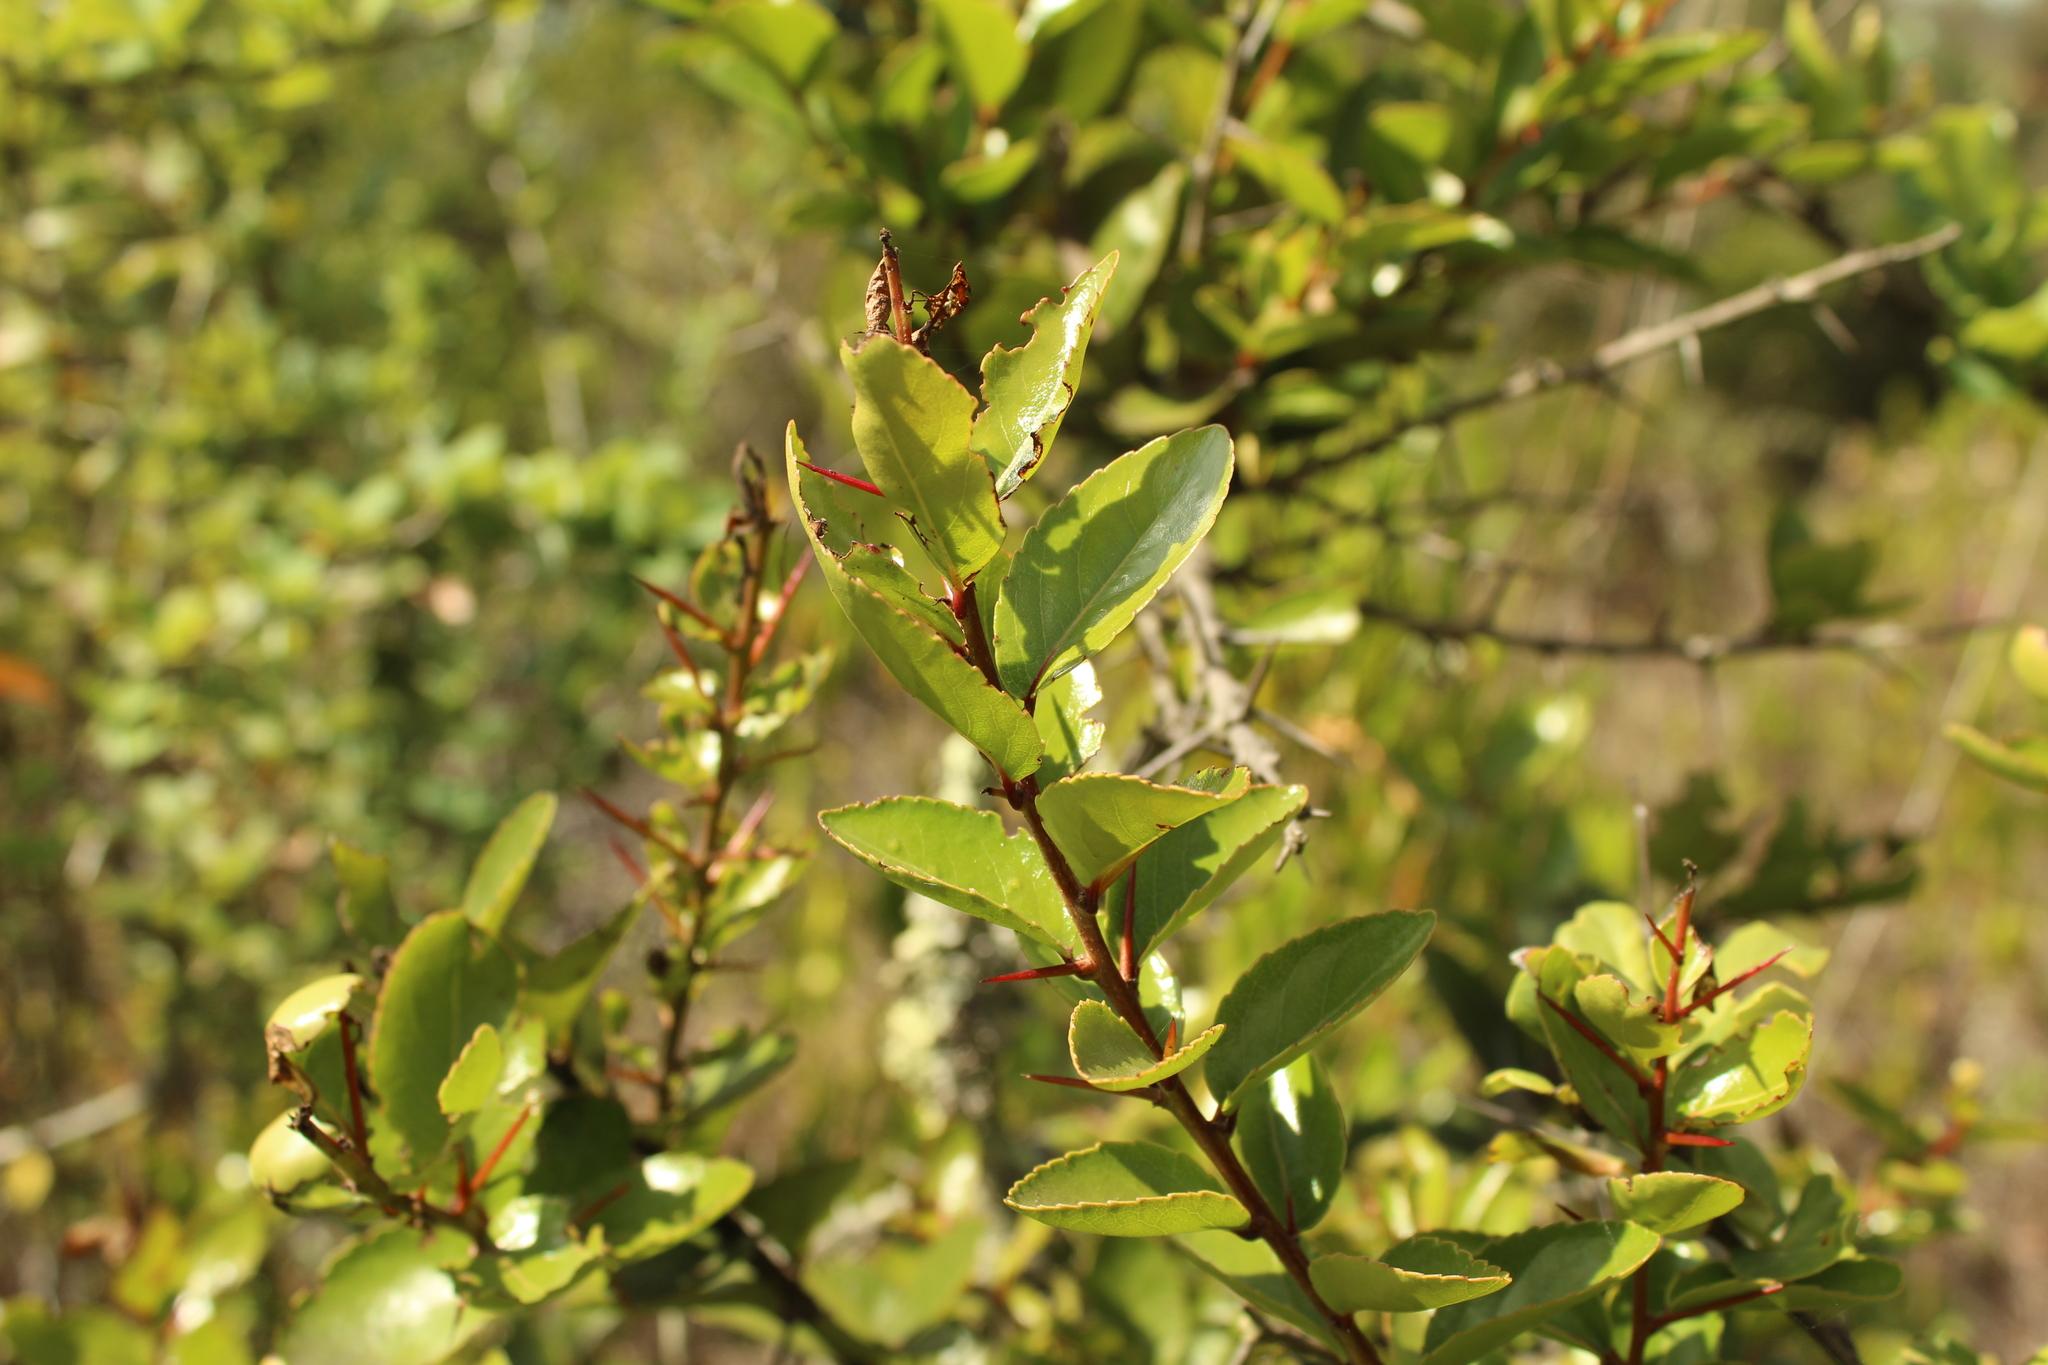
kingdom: Plantae
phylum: Tracheophyta
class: Magnoliopsida
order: Malpighiales
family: Salicaceae
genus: Xylosma
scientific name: Xylosma spiculifera
